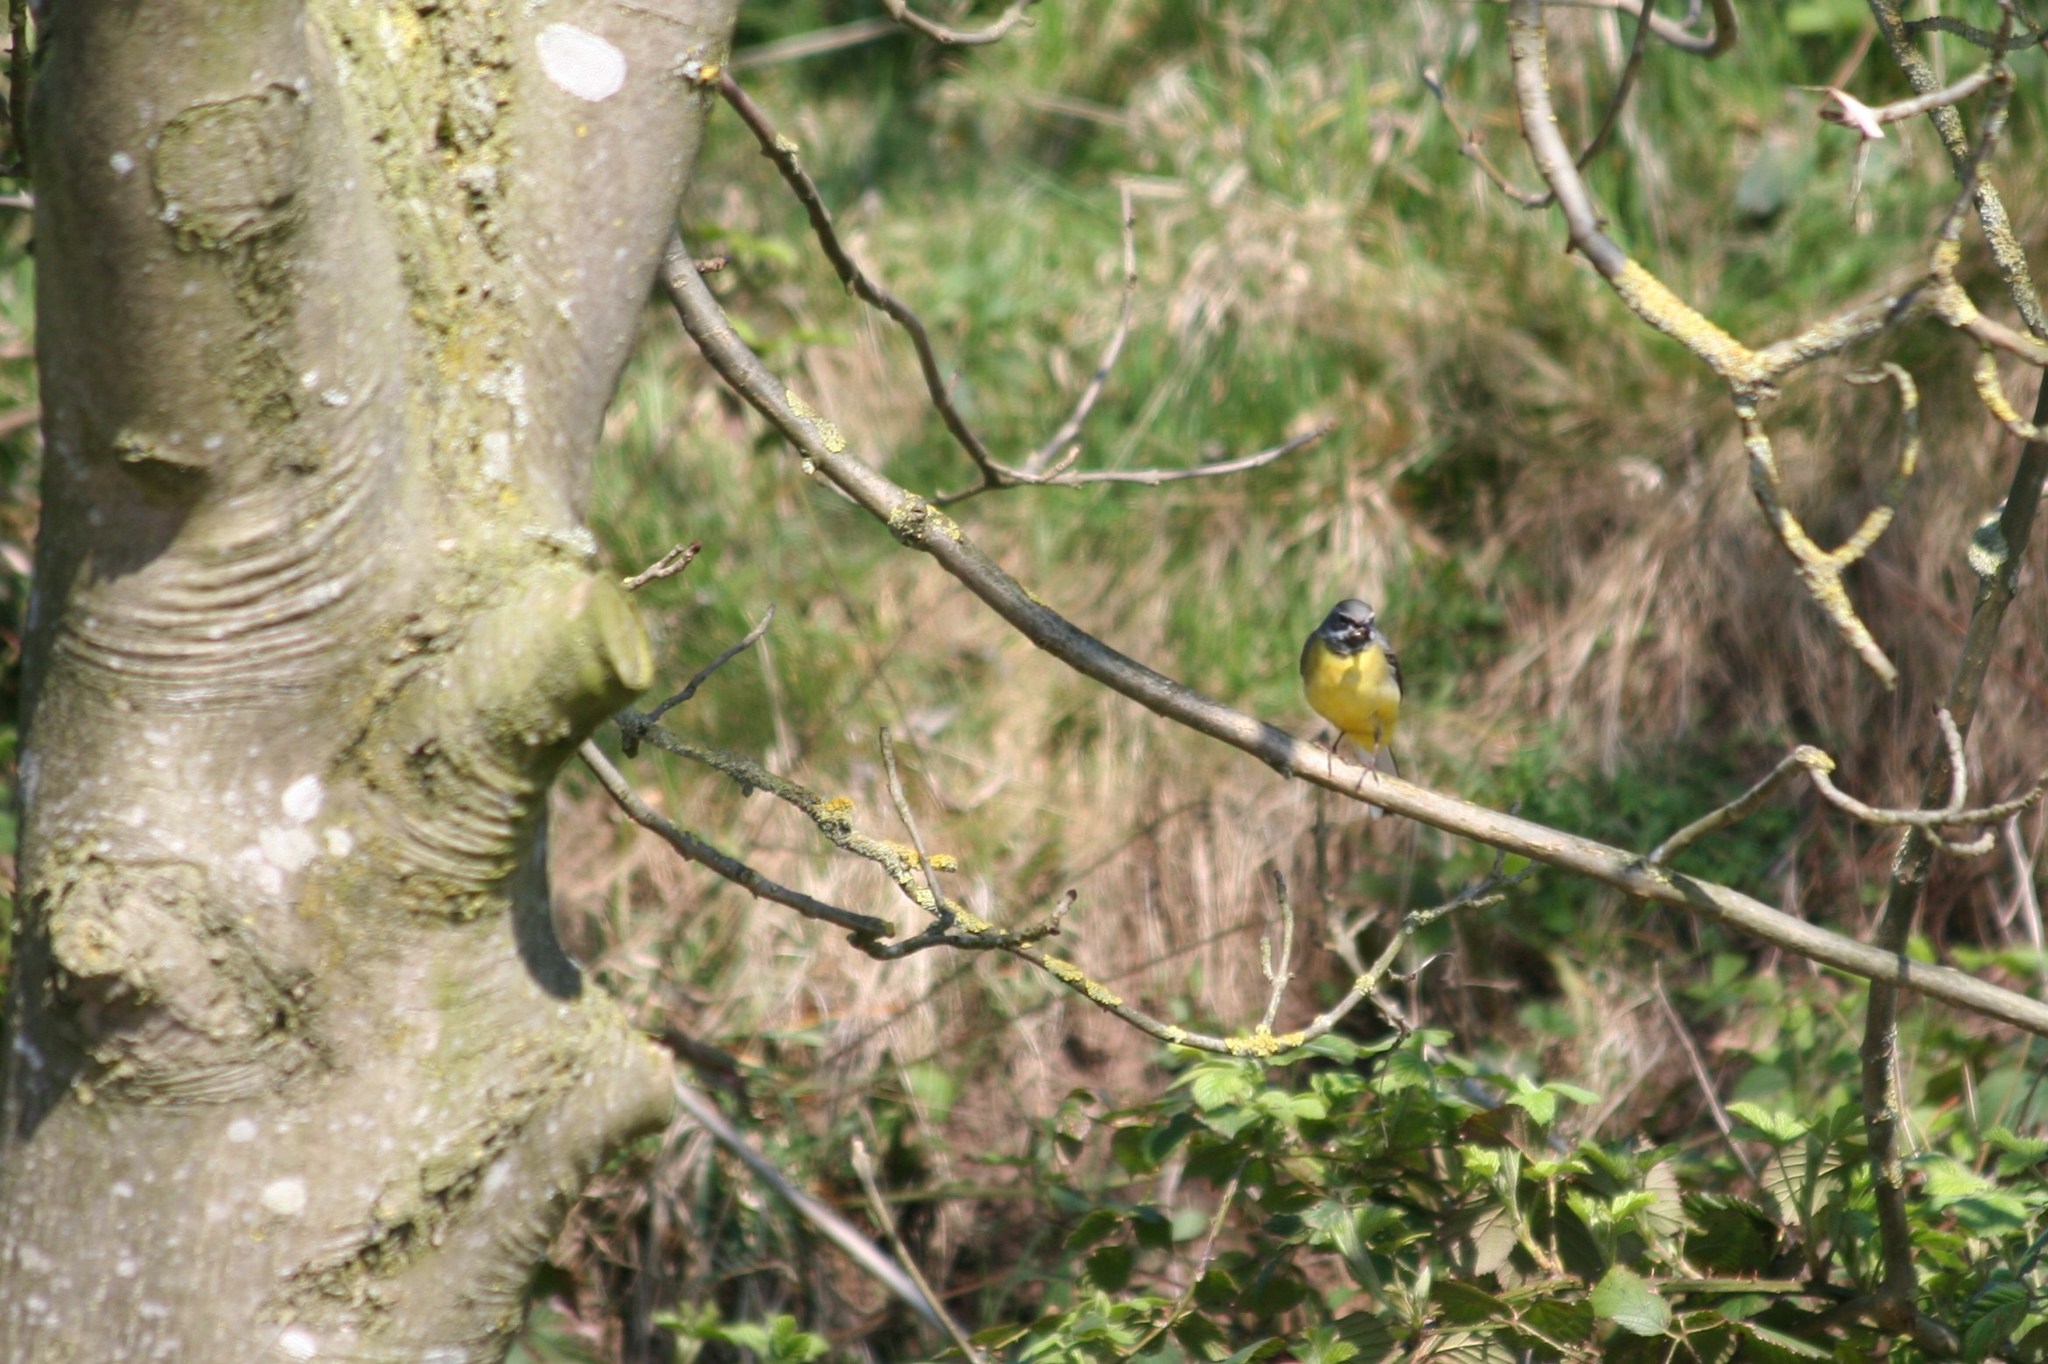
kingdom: Animalia
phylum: Chordata
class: Aves
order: Passeriformes
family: Motacillidae
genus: Motacilla
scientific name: Motacilla cinerea
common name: Grey wagtail
